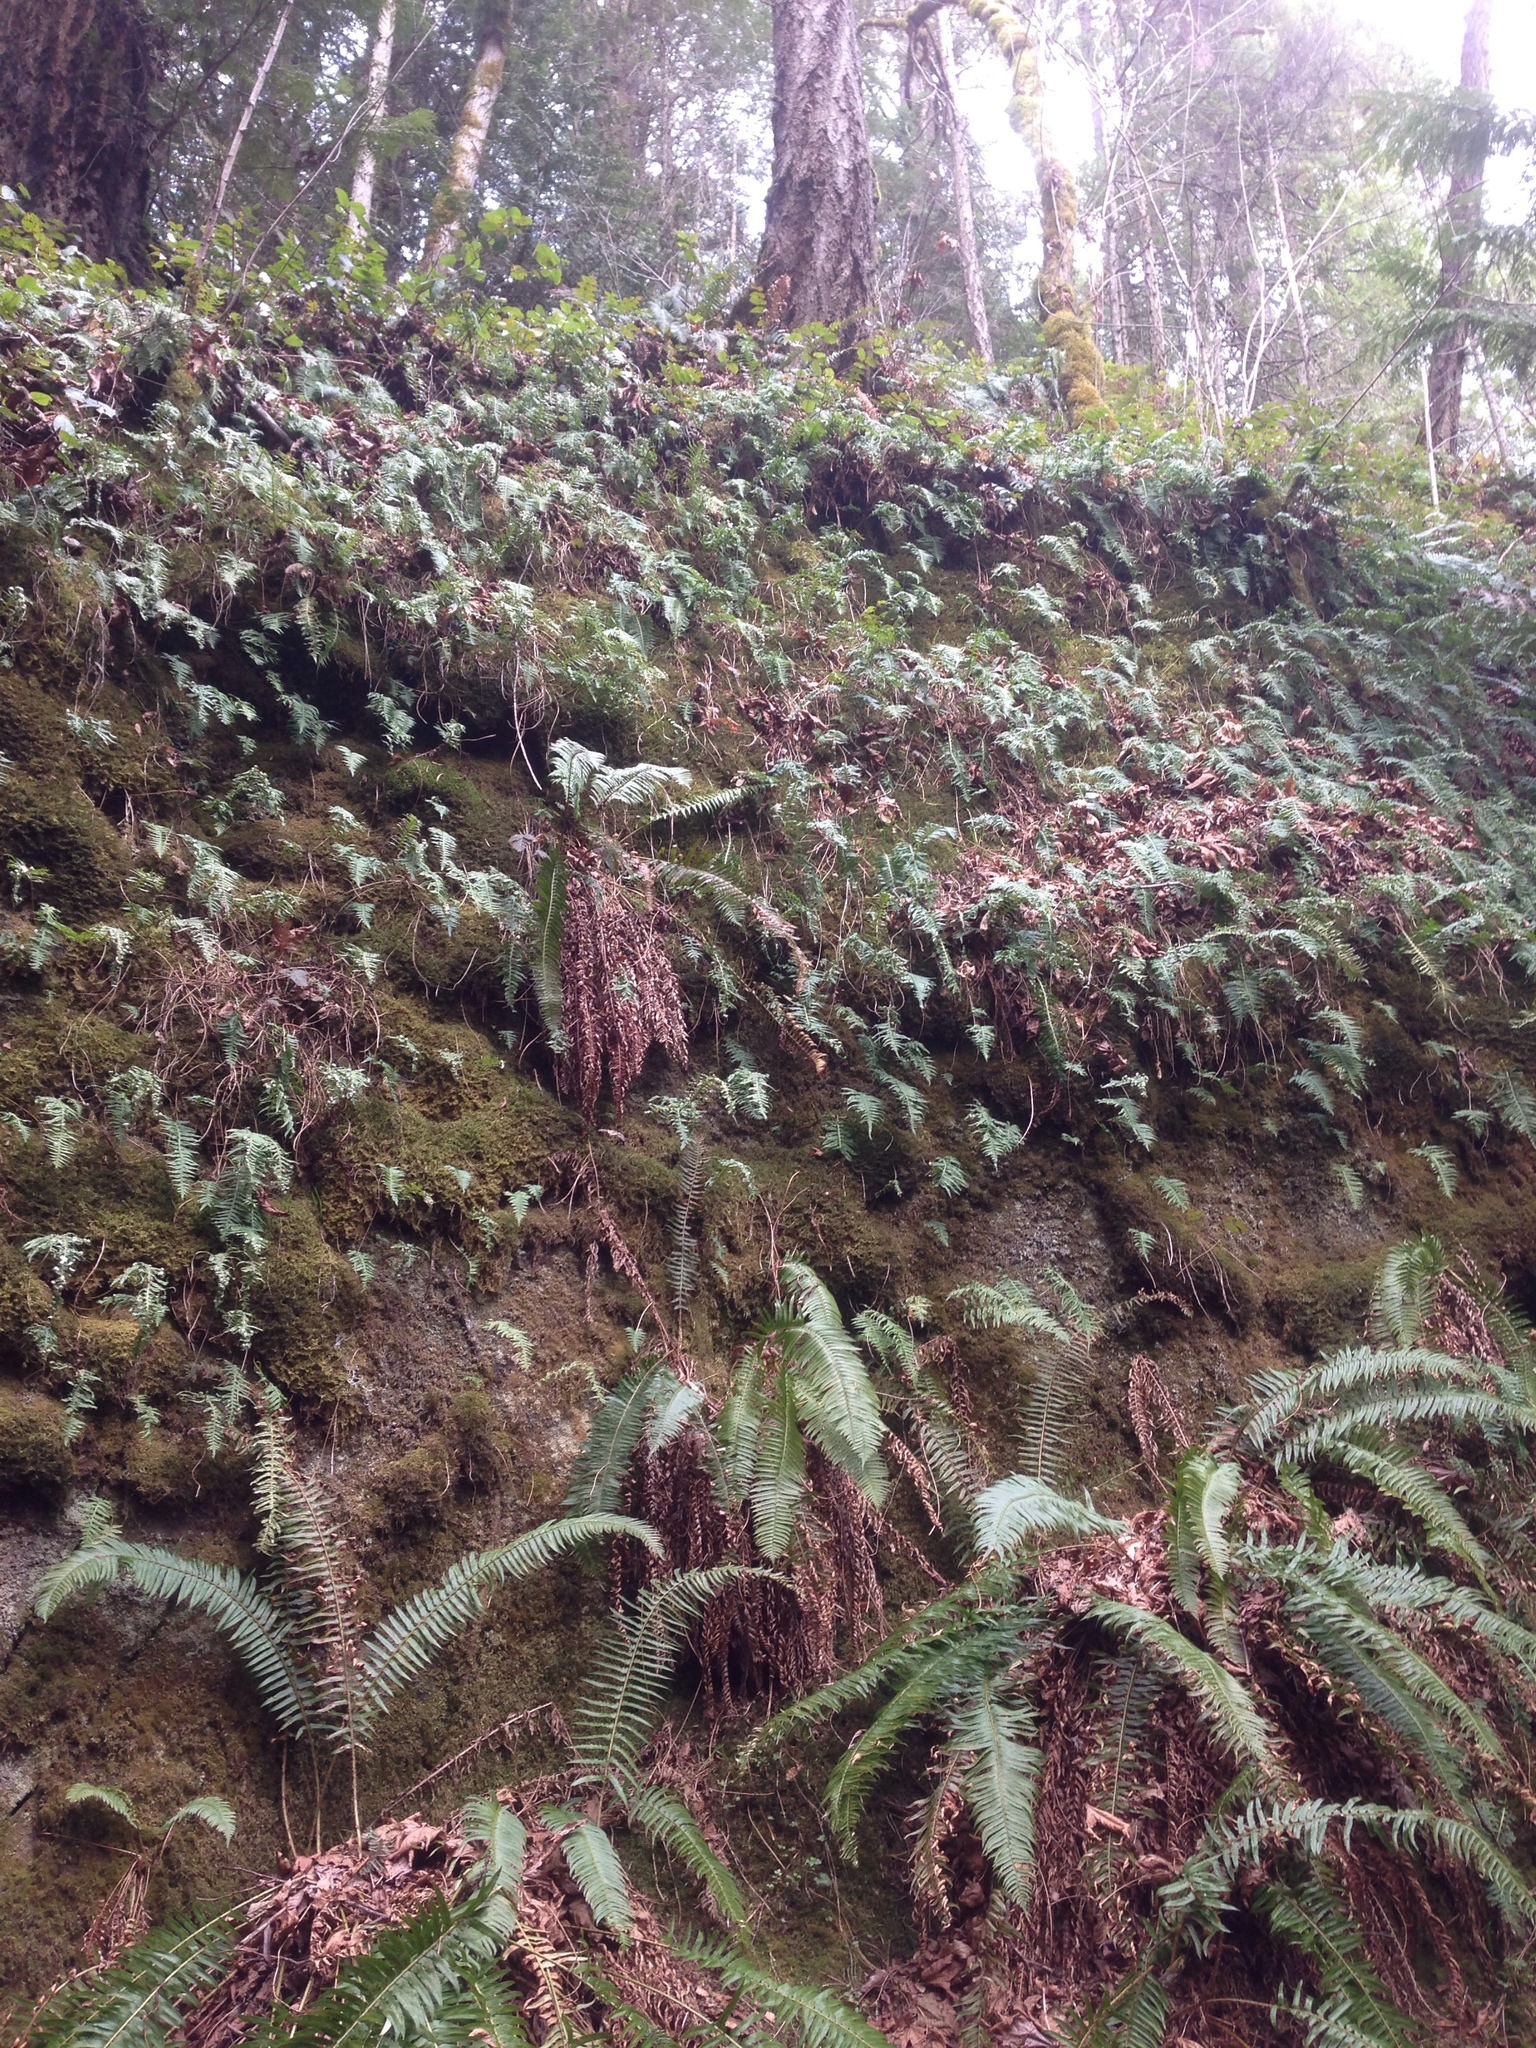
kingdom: Plantae
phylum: Tracheophyta
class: Polypodiopsida
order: Polypodiales
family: Polypodiaceae
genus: Polypodium
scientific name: Polypodium glycyrrhiza
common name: Licorice fern
